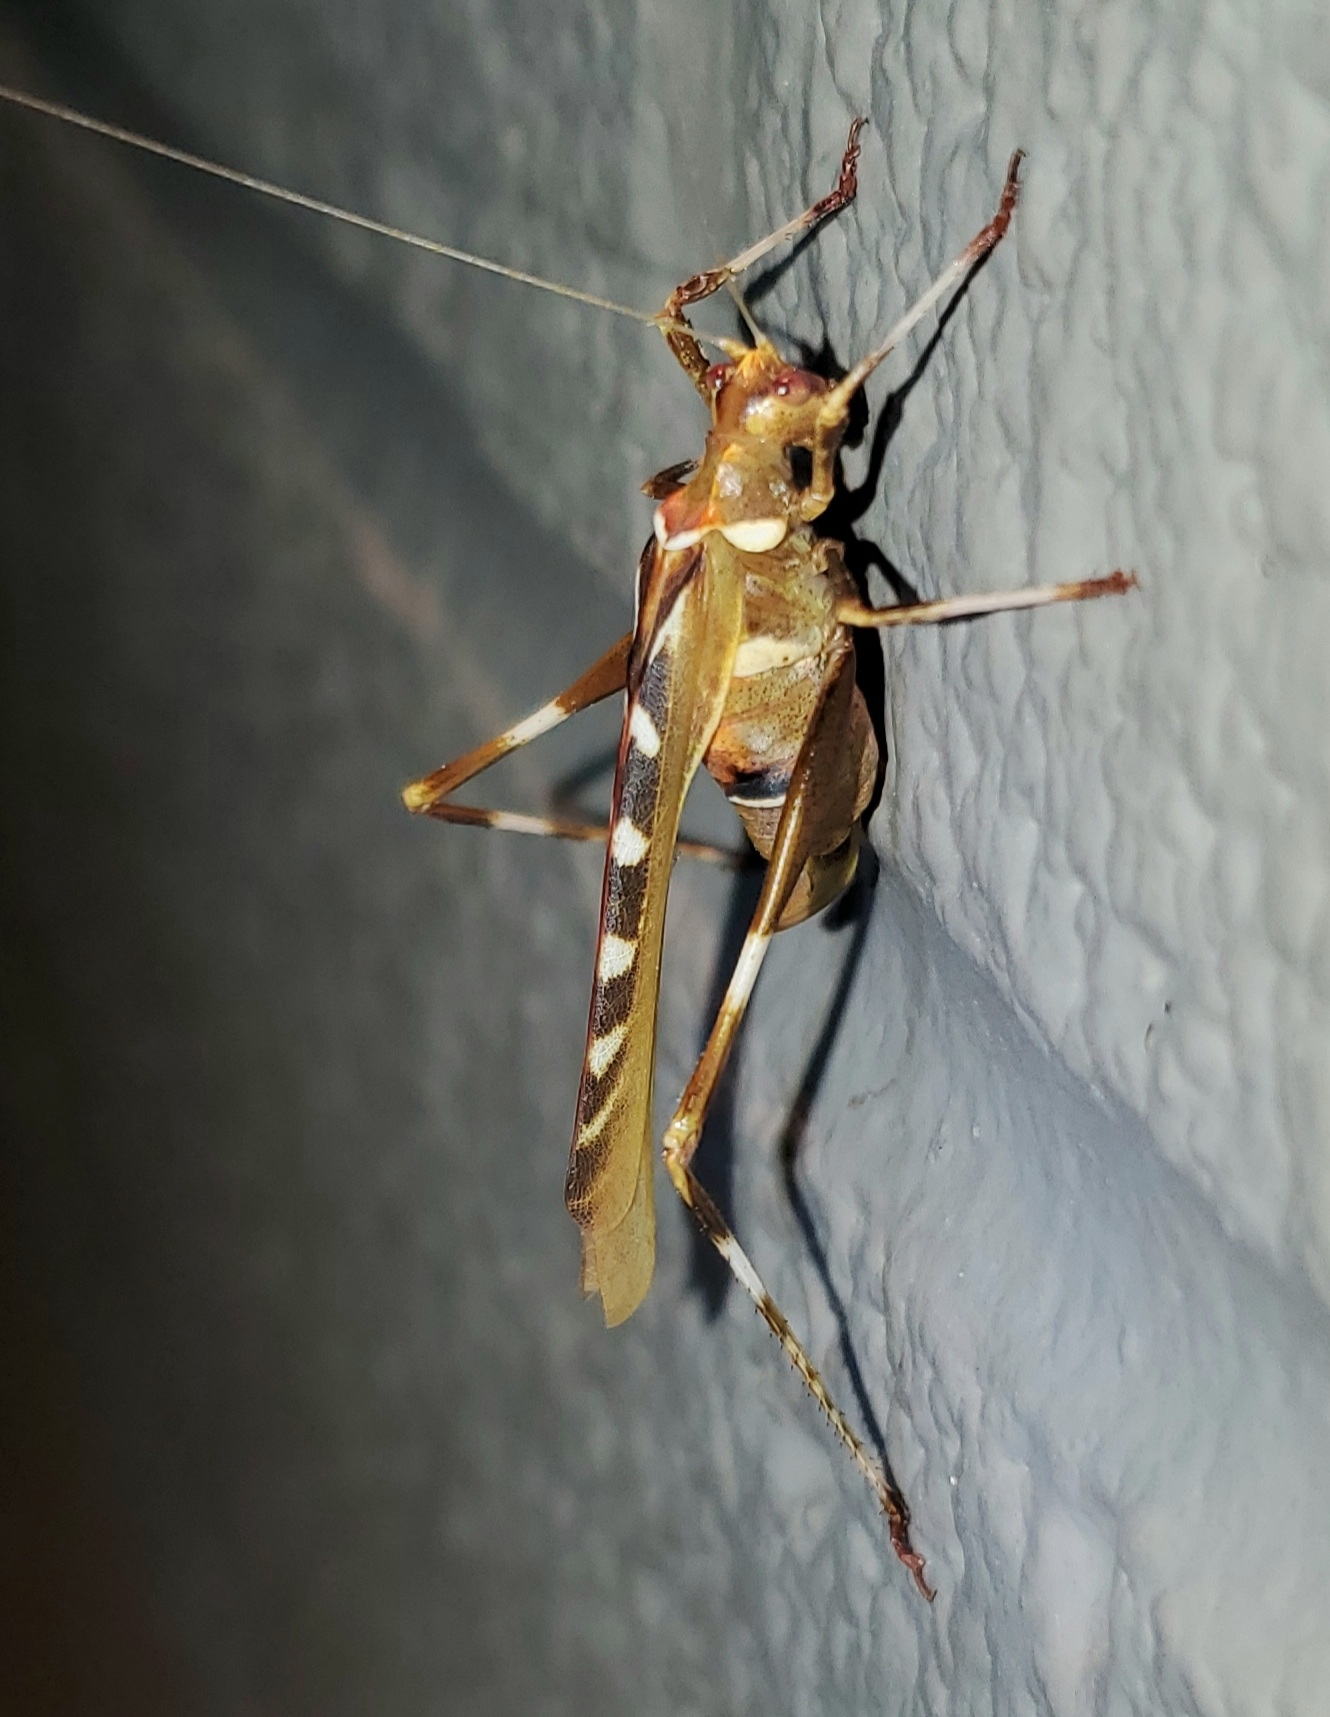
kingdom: Animalia
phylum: Arthropoda
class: Insecta
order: Orthoptera
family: Tettigoniidae
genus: Insara
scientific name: Insara covilleae
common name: Creosote bush katydid
